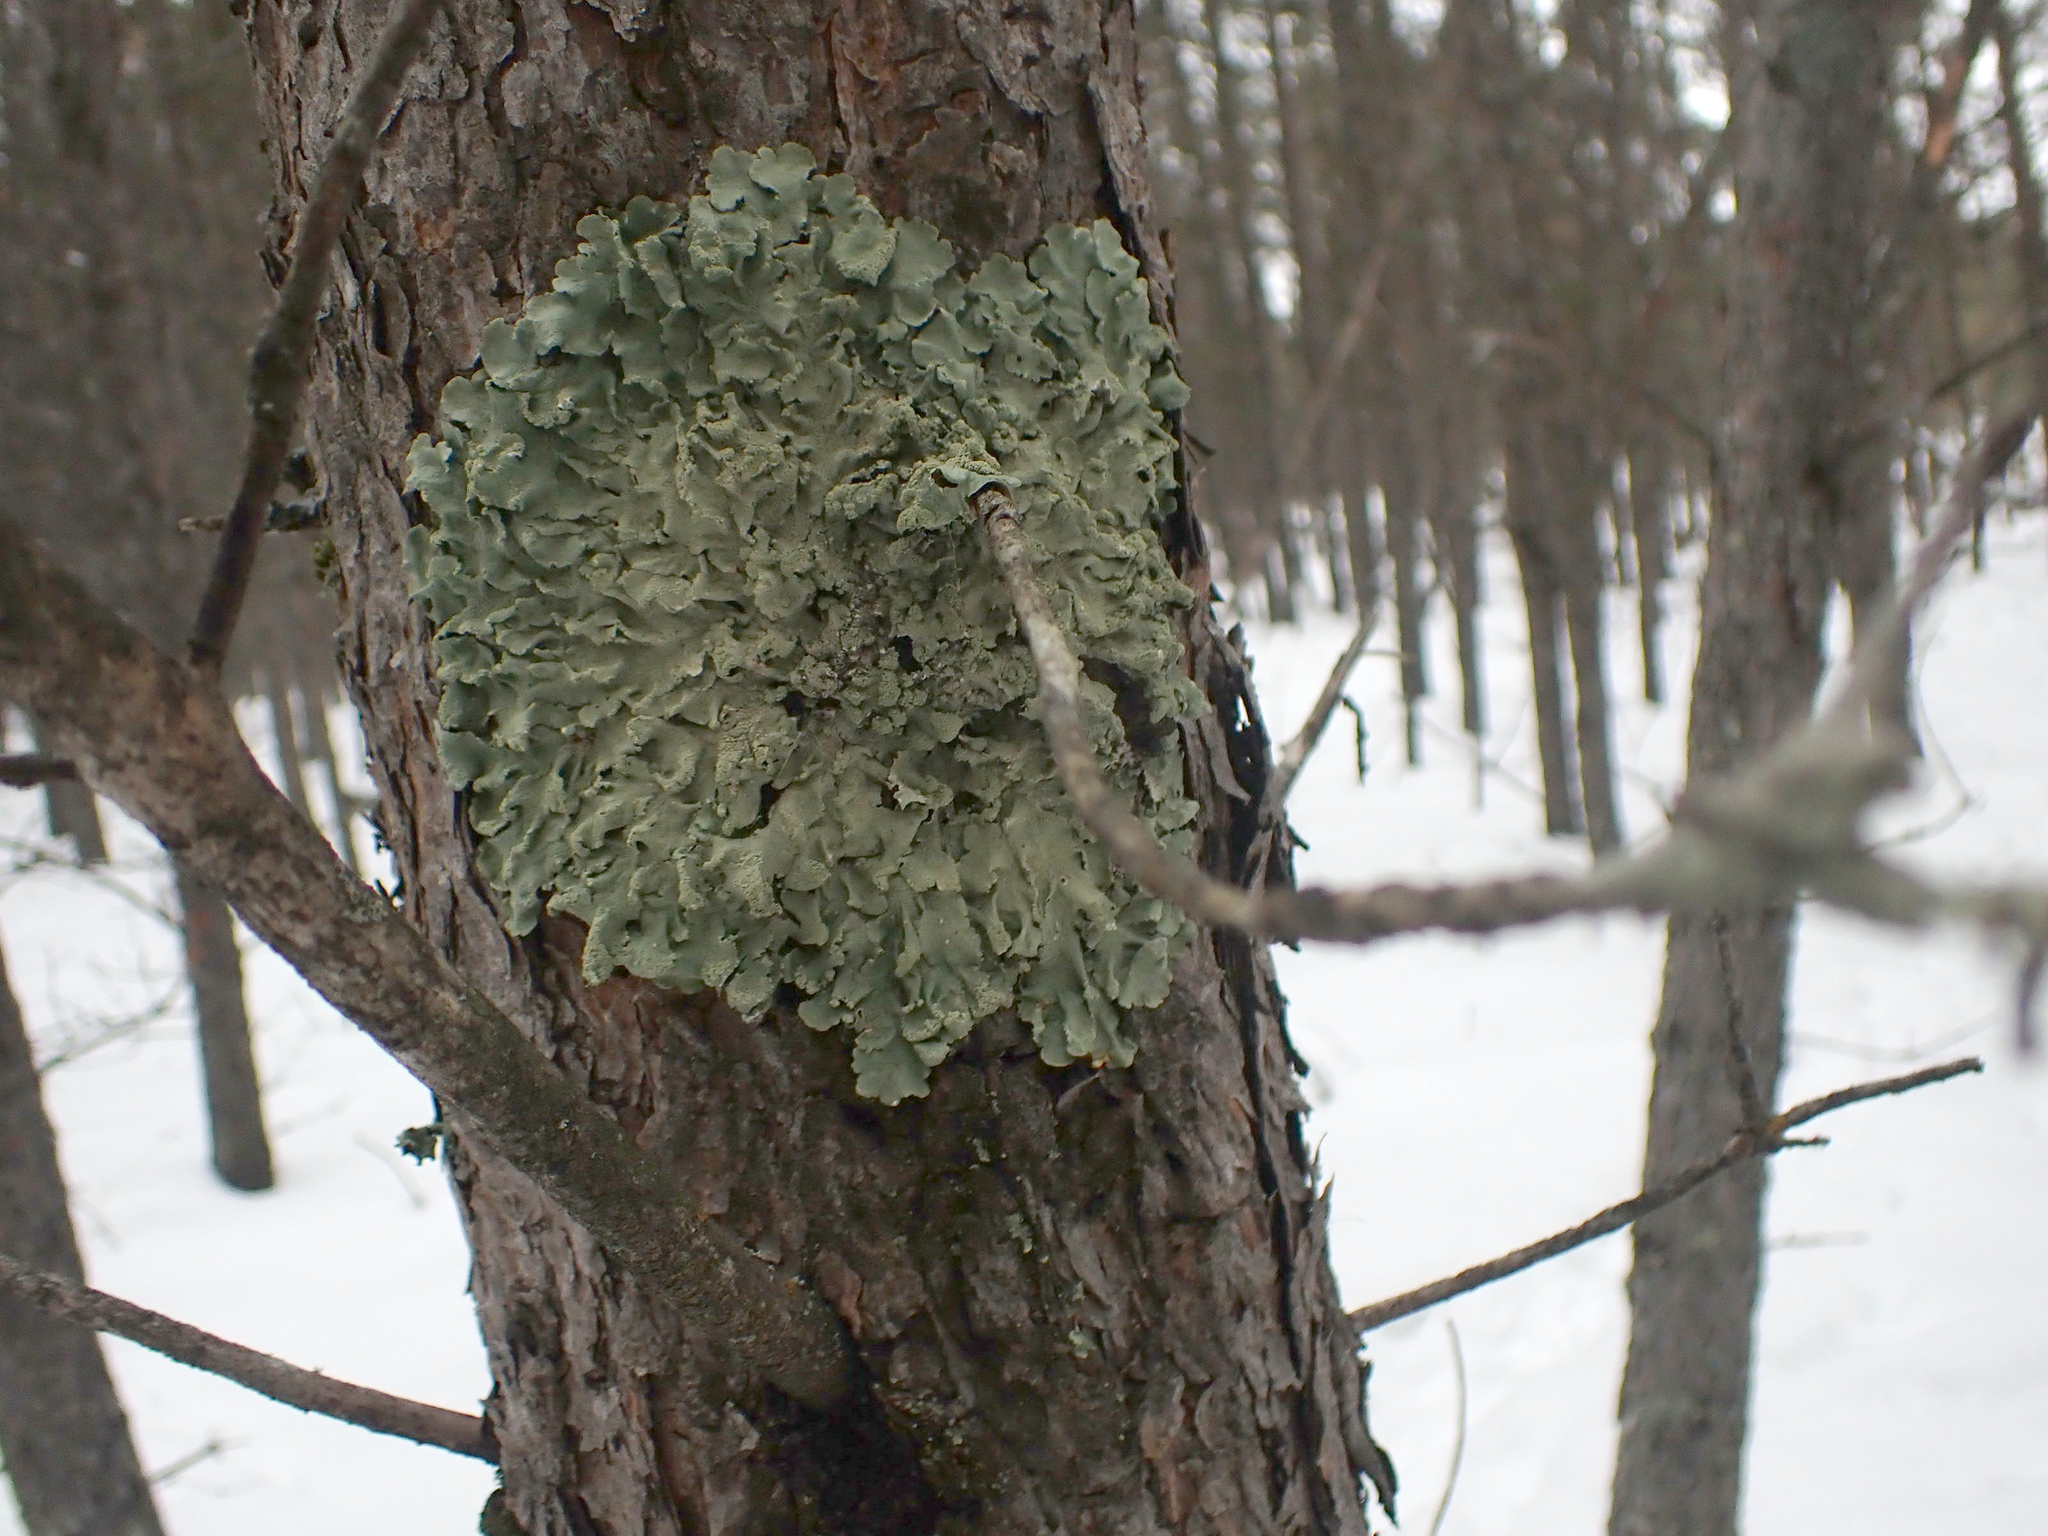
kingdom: Fungi
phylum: Ascomycota
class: Lecanoromycetes
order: Lecanorales
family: Parmeliaceae
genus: Flavoparmelia
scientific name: Flavoparmelia caperata
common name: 40-mile per hour lichen
